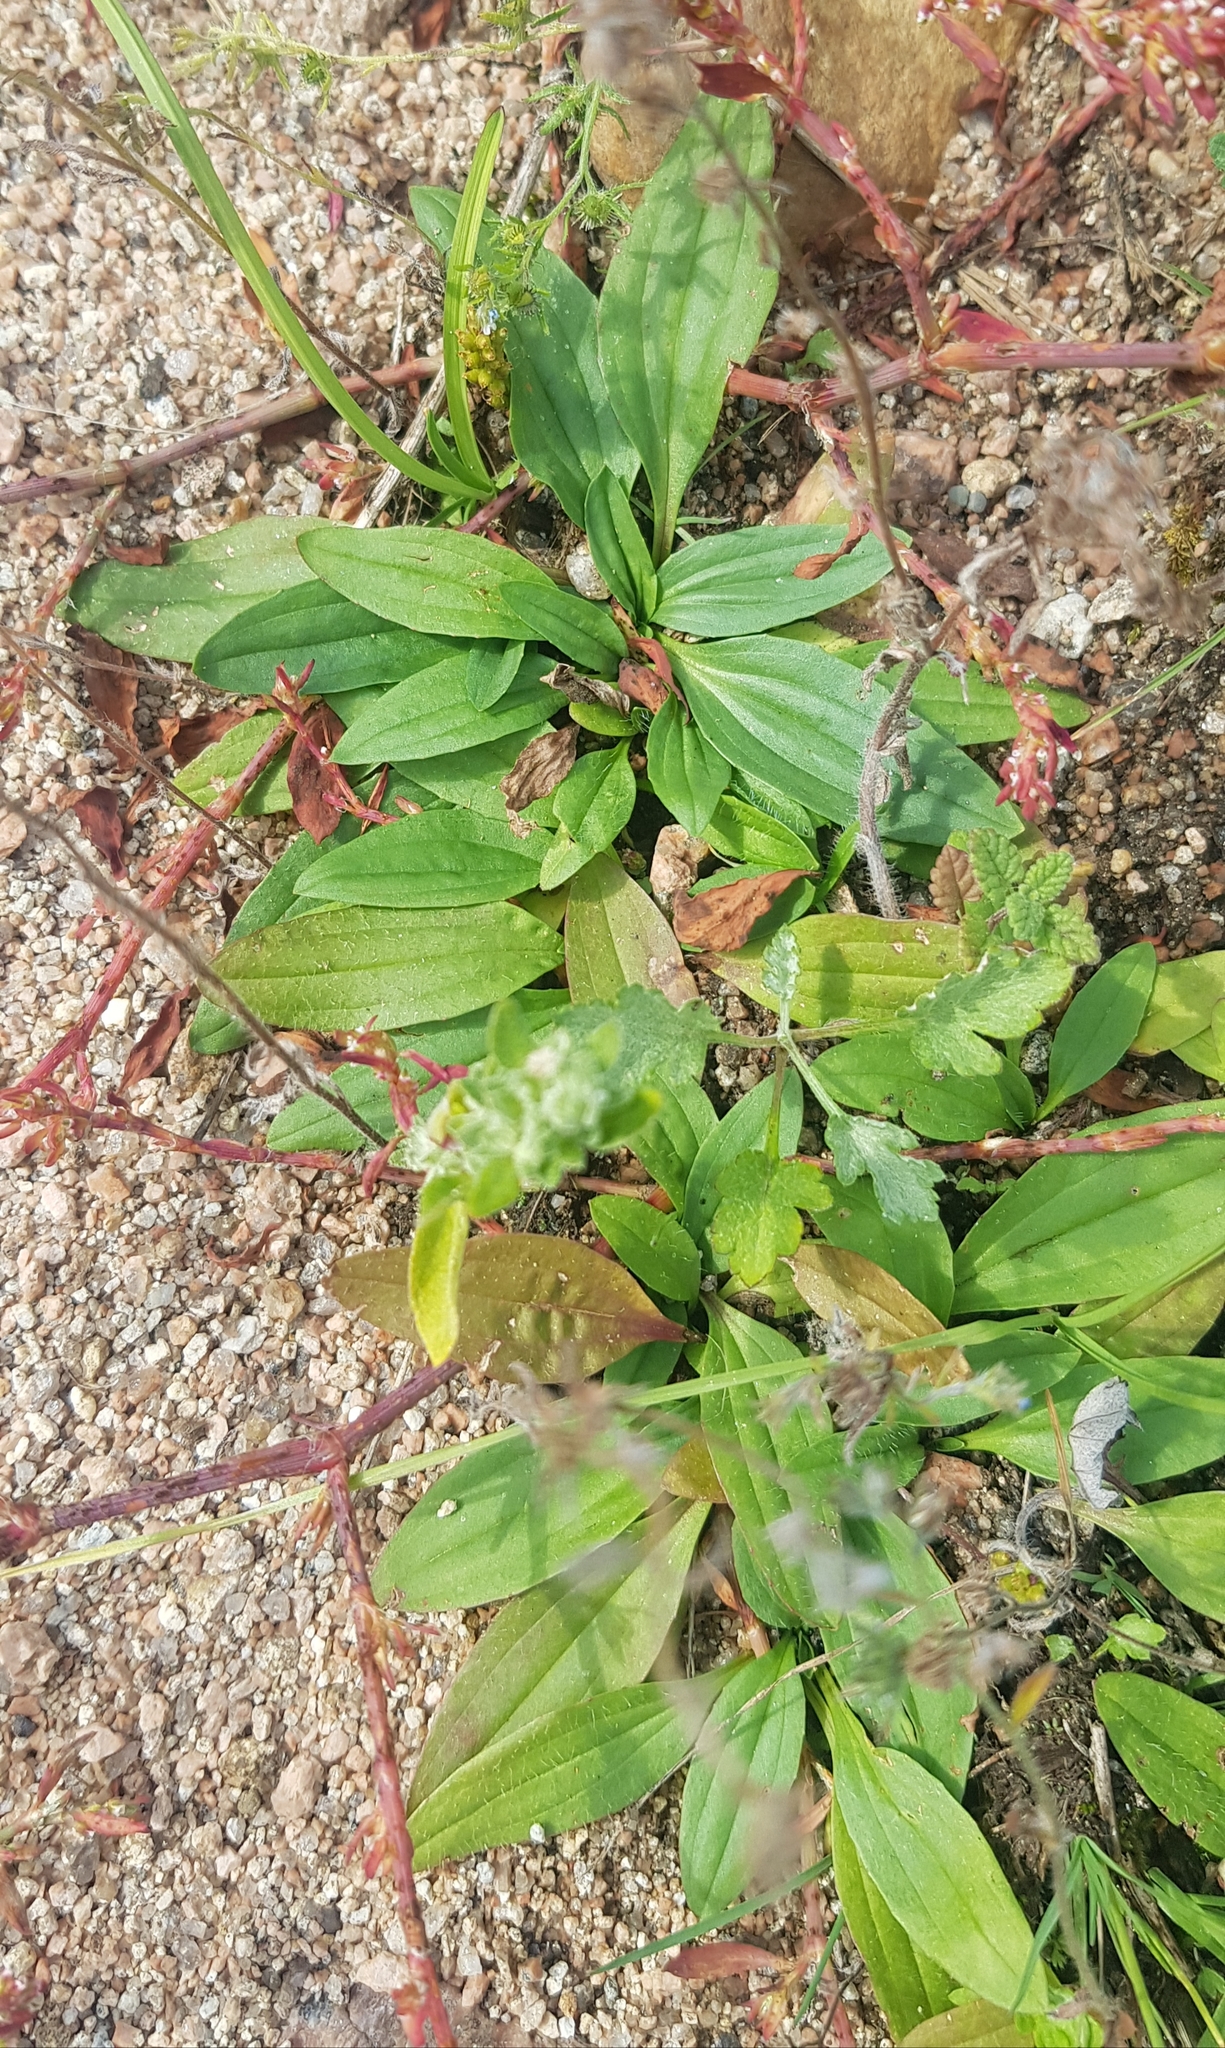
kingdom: Plantae
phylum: Tracheophyta
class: Magnoliopsida
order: Lamiales
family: Plantaginaceae
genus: Plantago
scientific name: Plantago depressa
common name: Depressed plantain
